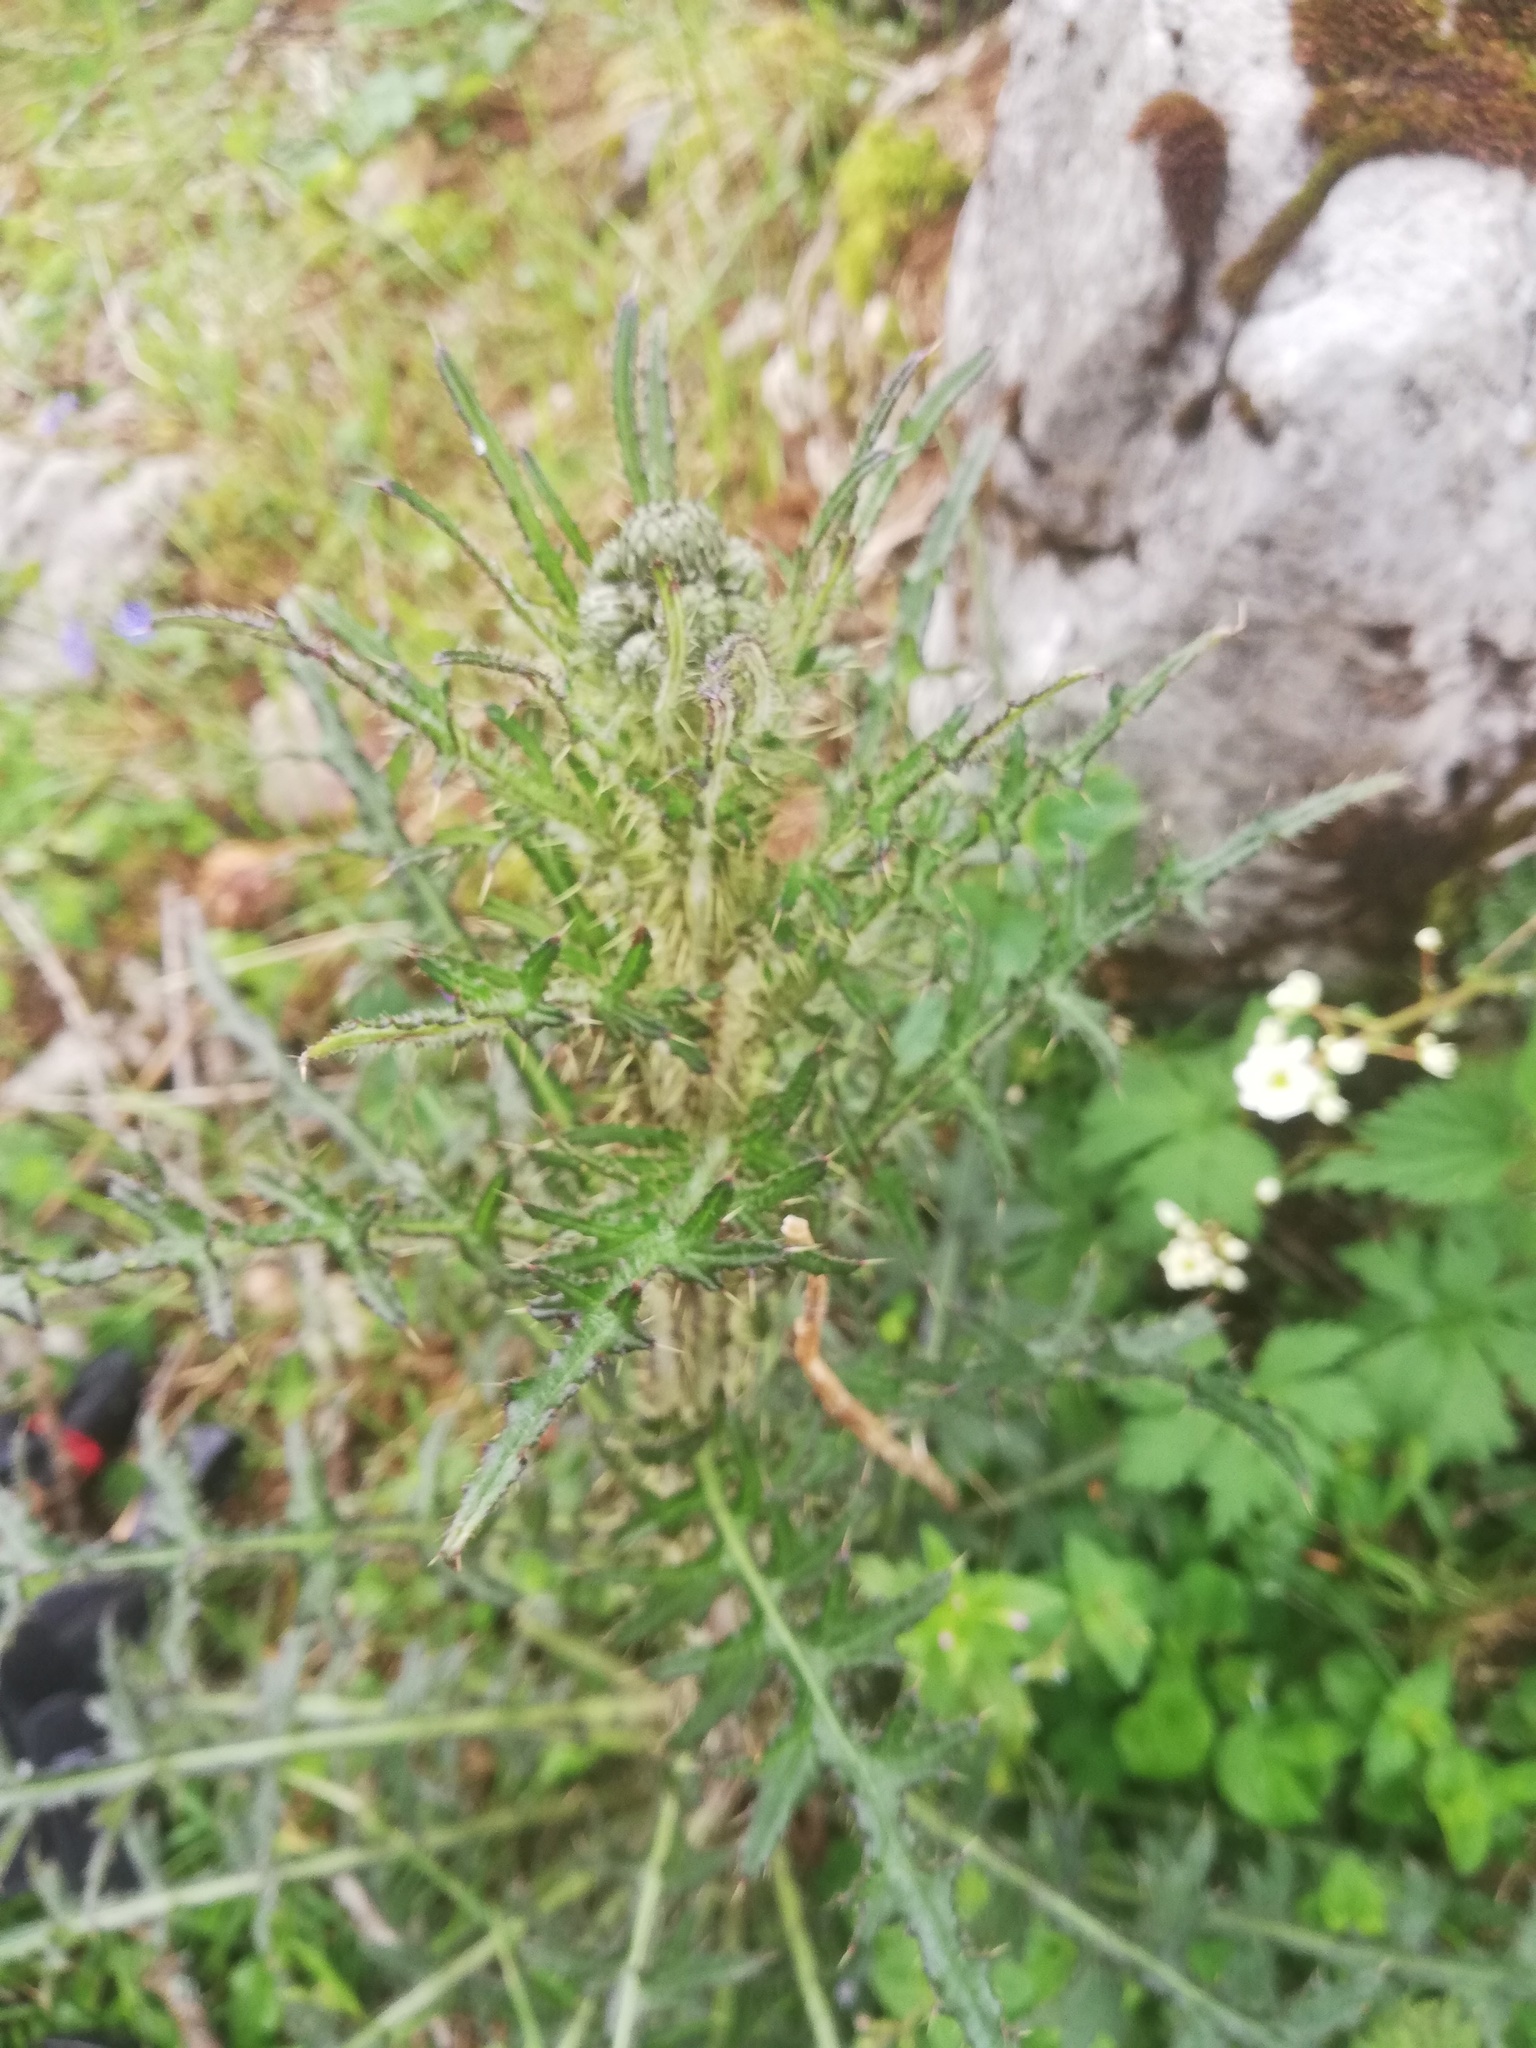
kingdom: Plantae
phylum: Tracheophyta
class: Magnoliopsida
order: Asterales
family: Asteraceae
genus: Cirsium
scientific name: Cirsium palustre
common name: Marsh thistle
